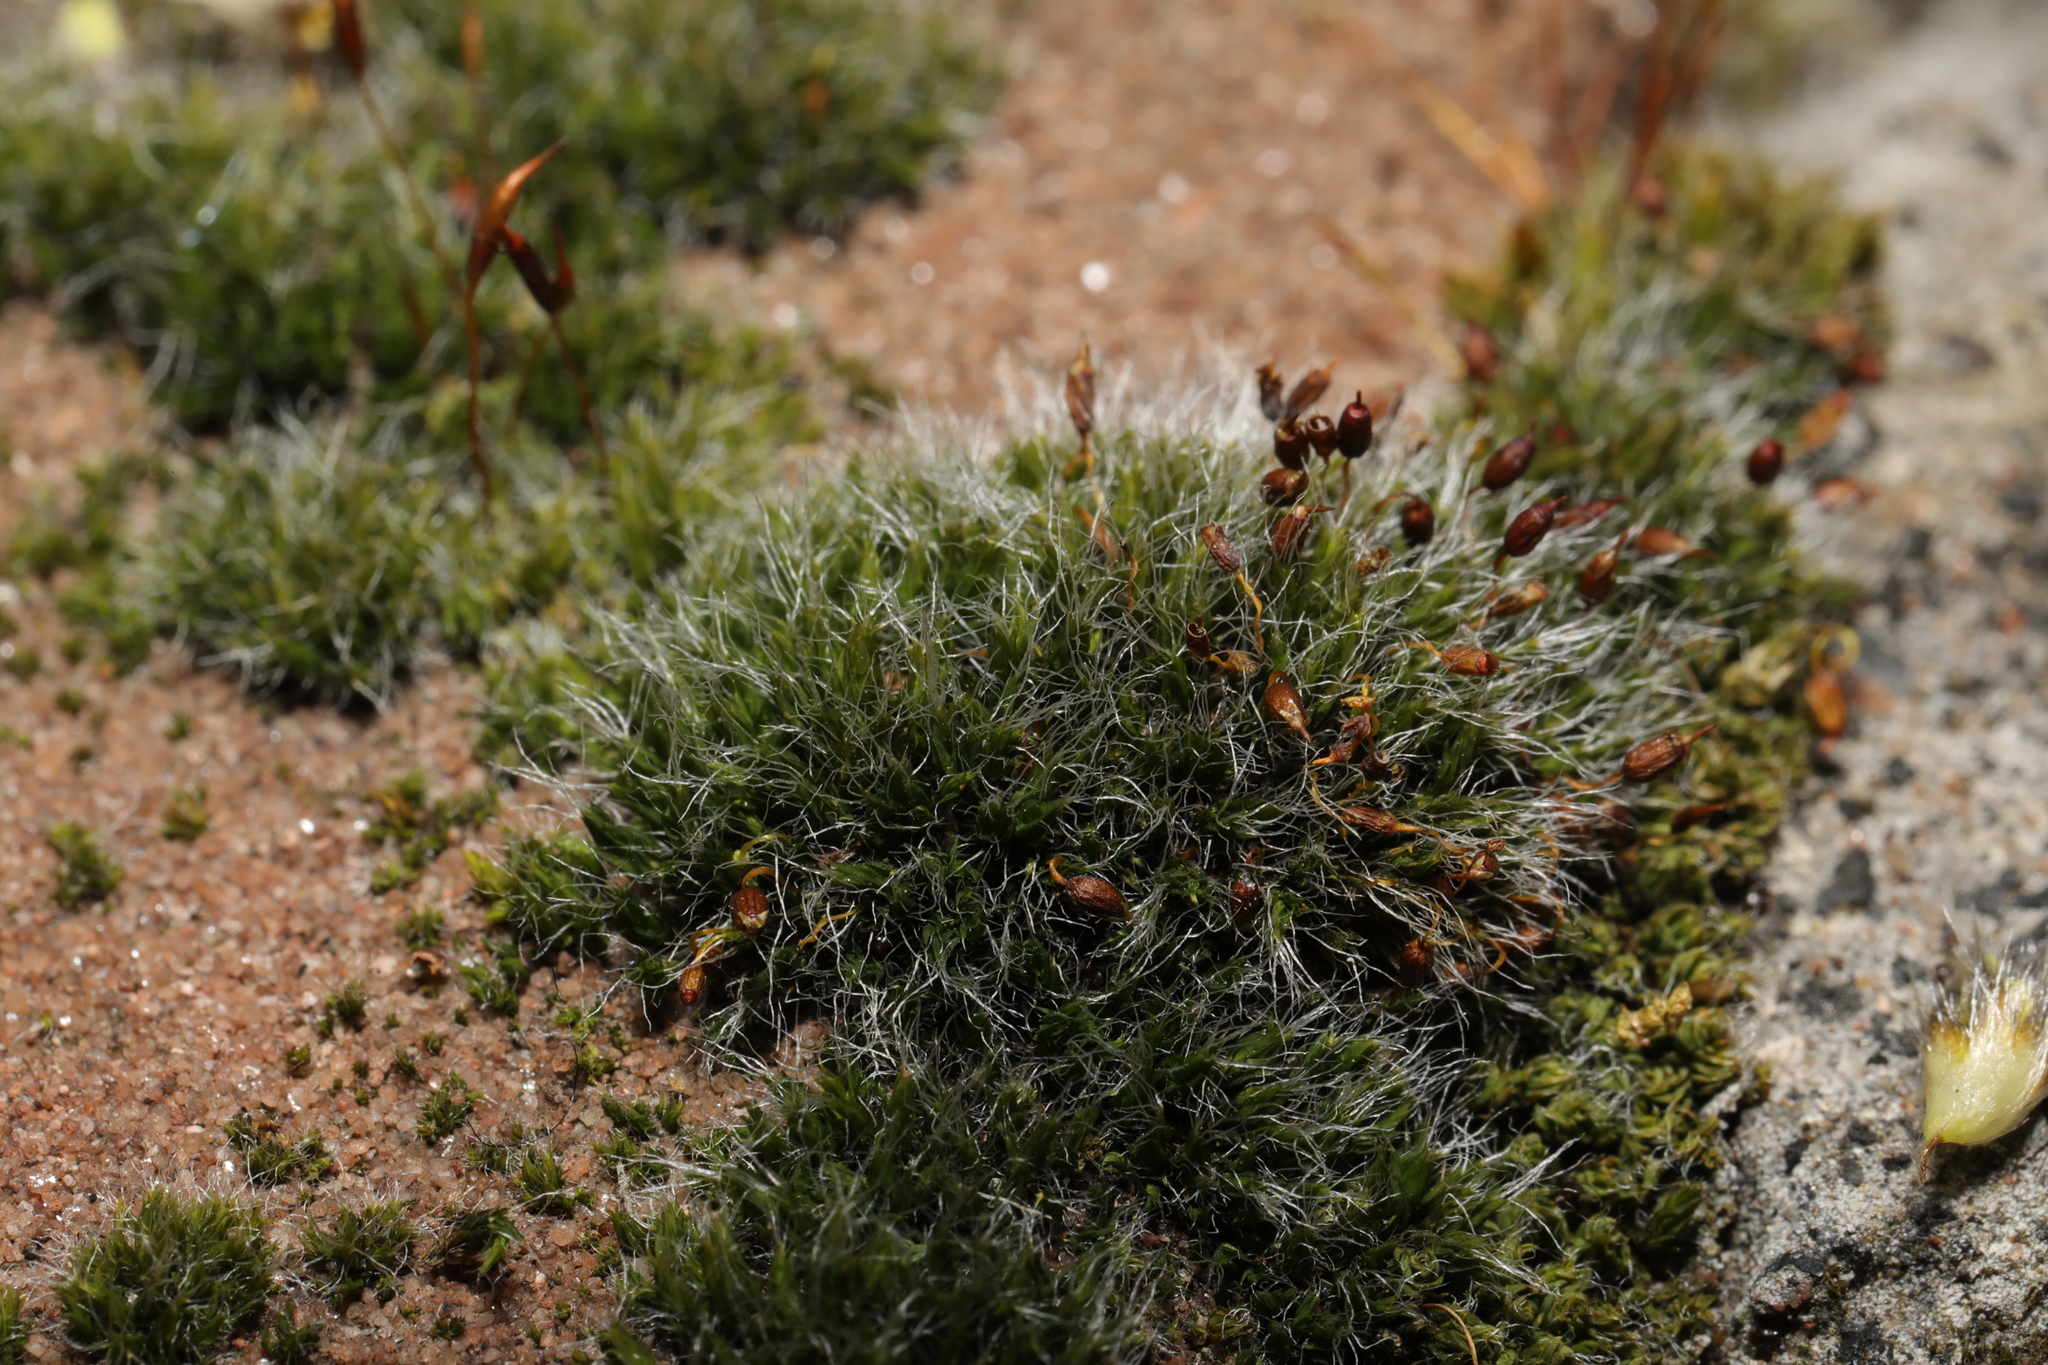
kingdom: Plantae
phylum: Bryophyta
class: Bryopsida
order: Grimmiales
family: Grimmiaceae
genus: Grimmia
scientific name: Grimmia pulvinata
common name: Grey-cushioned grimmia
